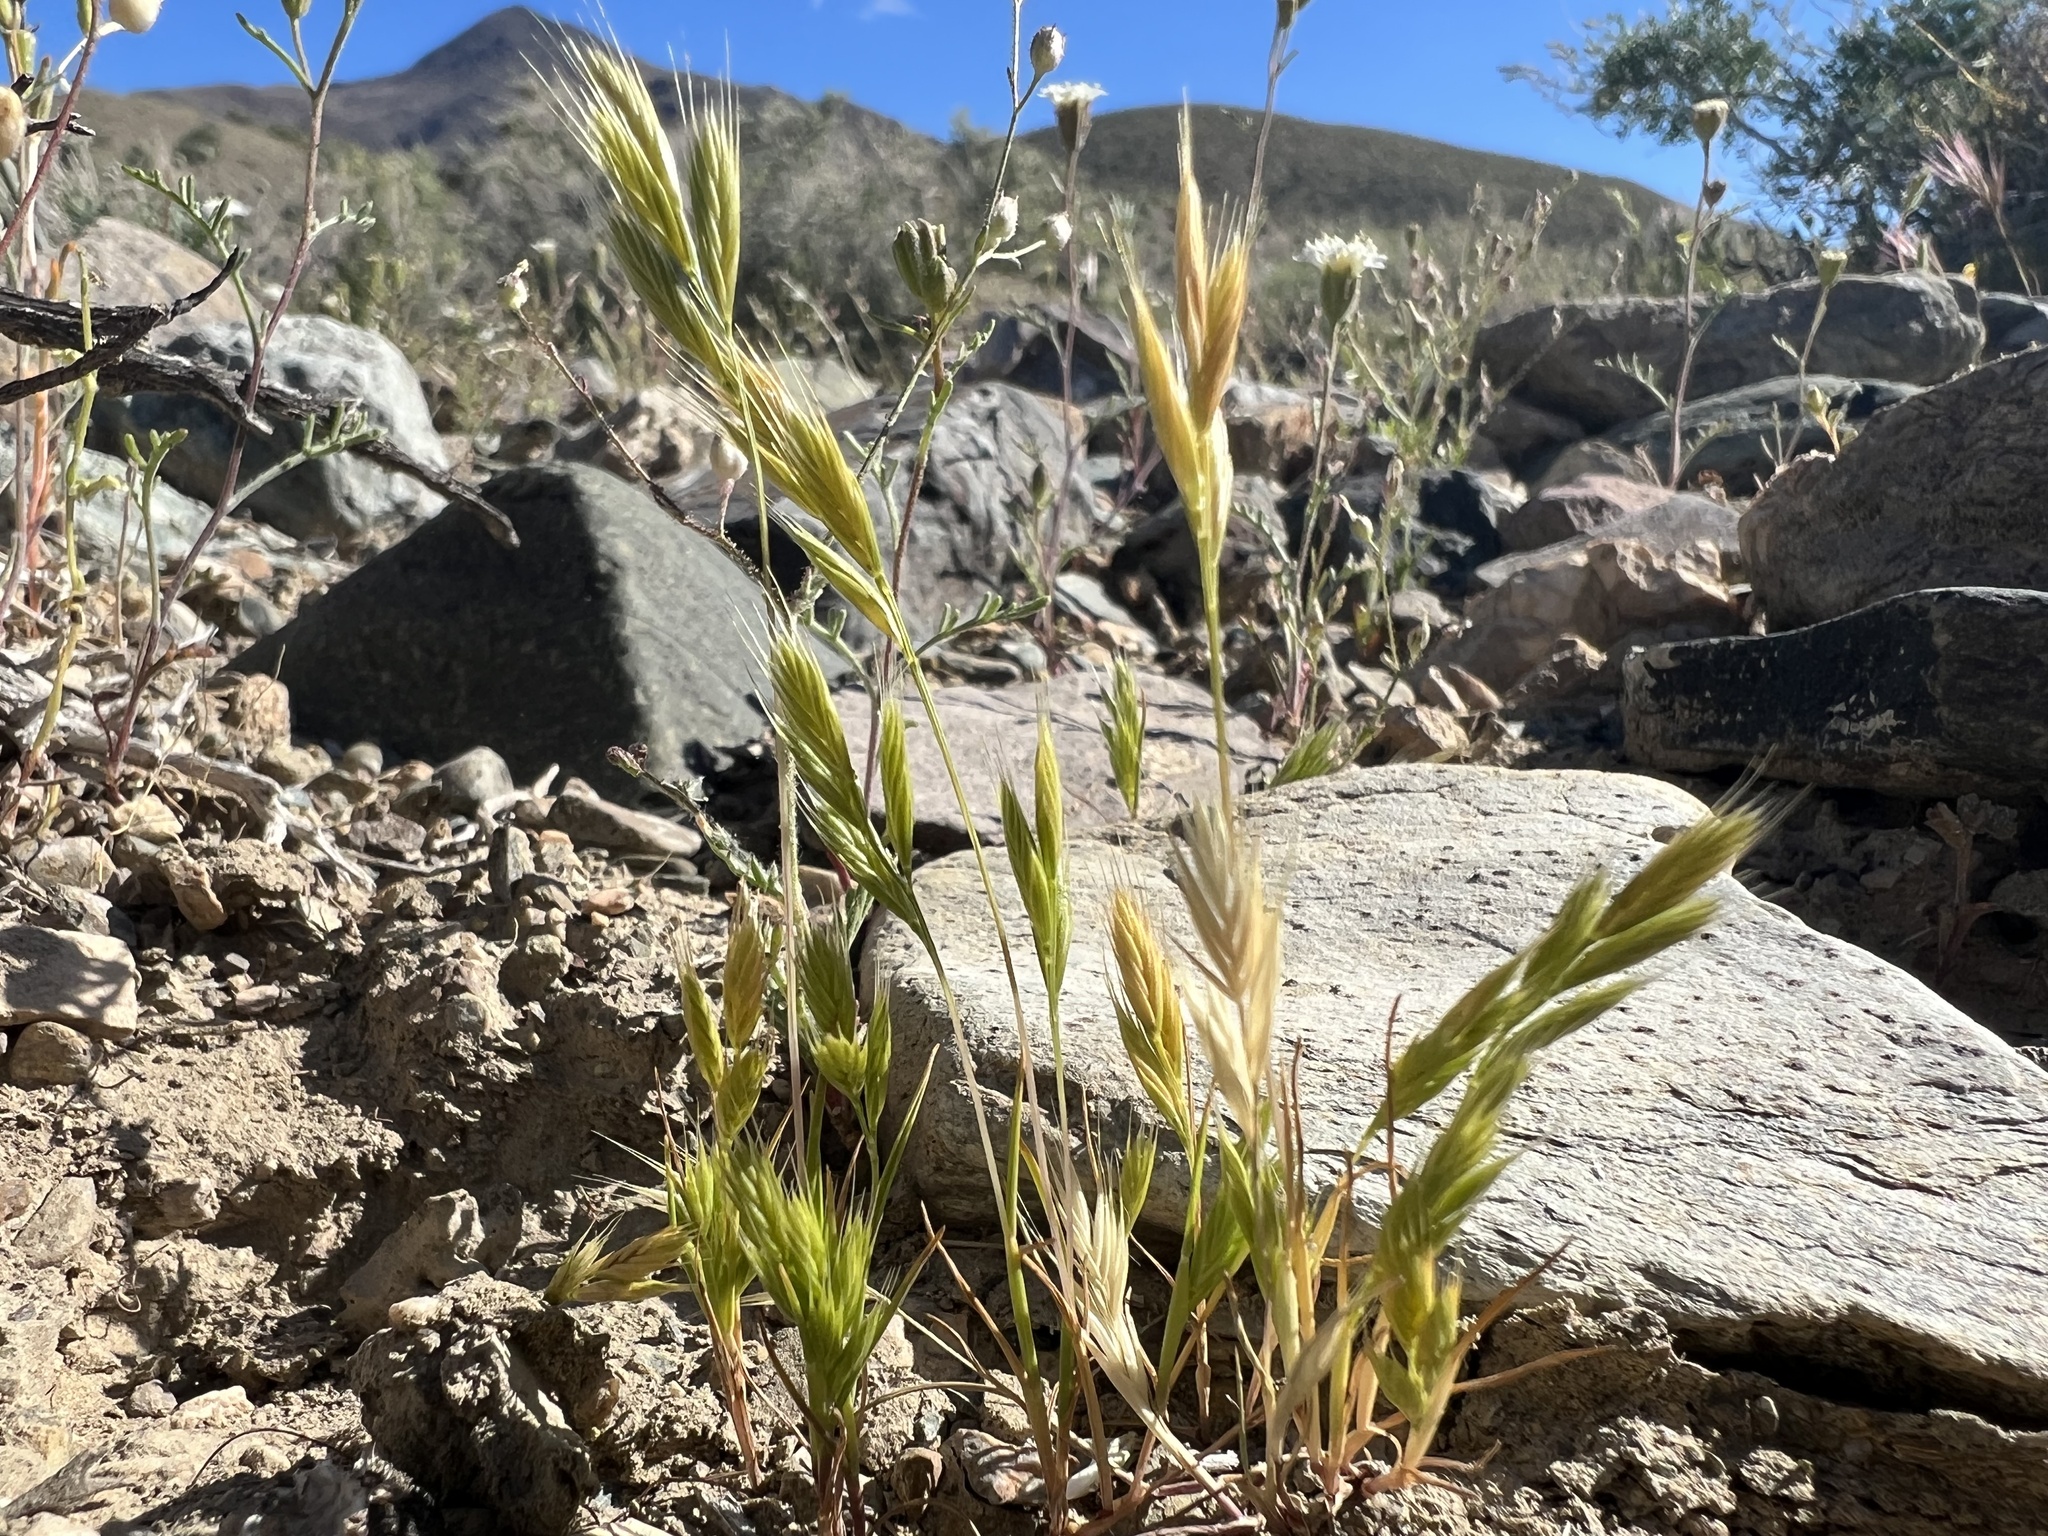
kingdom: Plantae
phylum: Tracheophyta
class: Liliopsida
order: Poales
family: Poaceae
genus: Festuca
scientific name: Festuca octoflora
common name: Sixweeks grass
